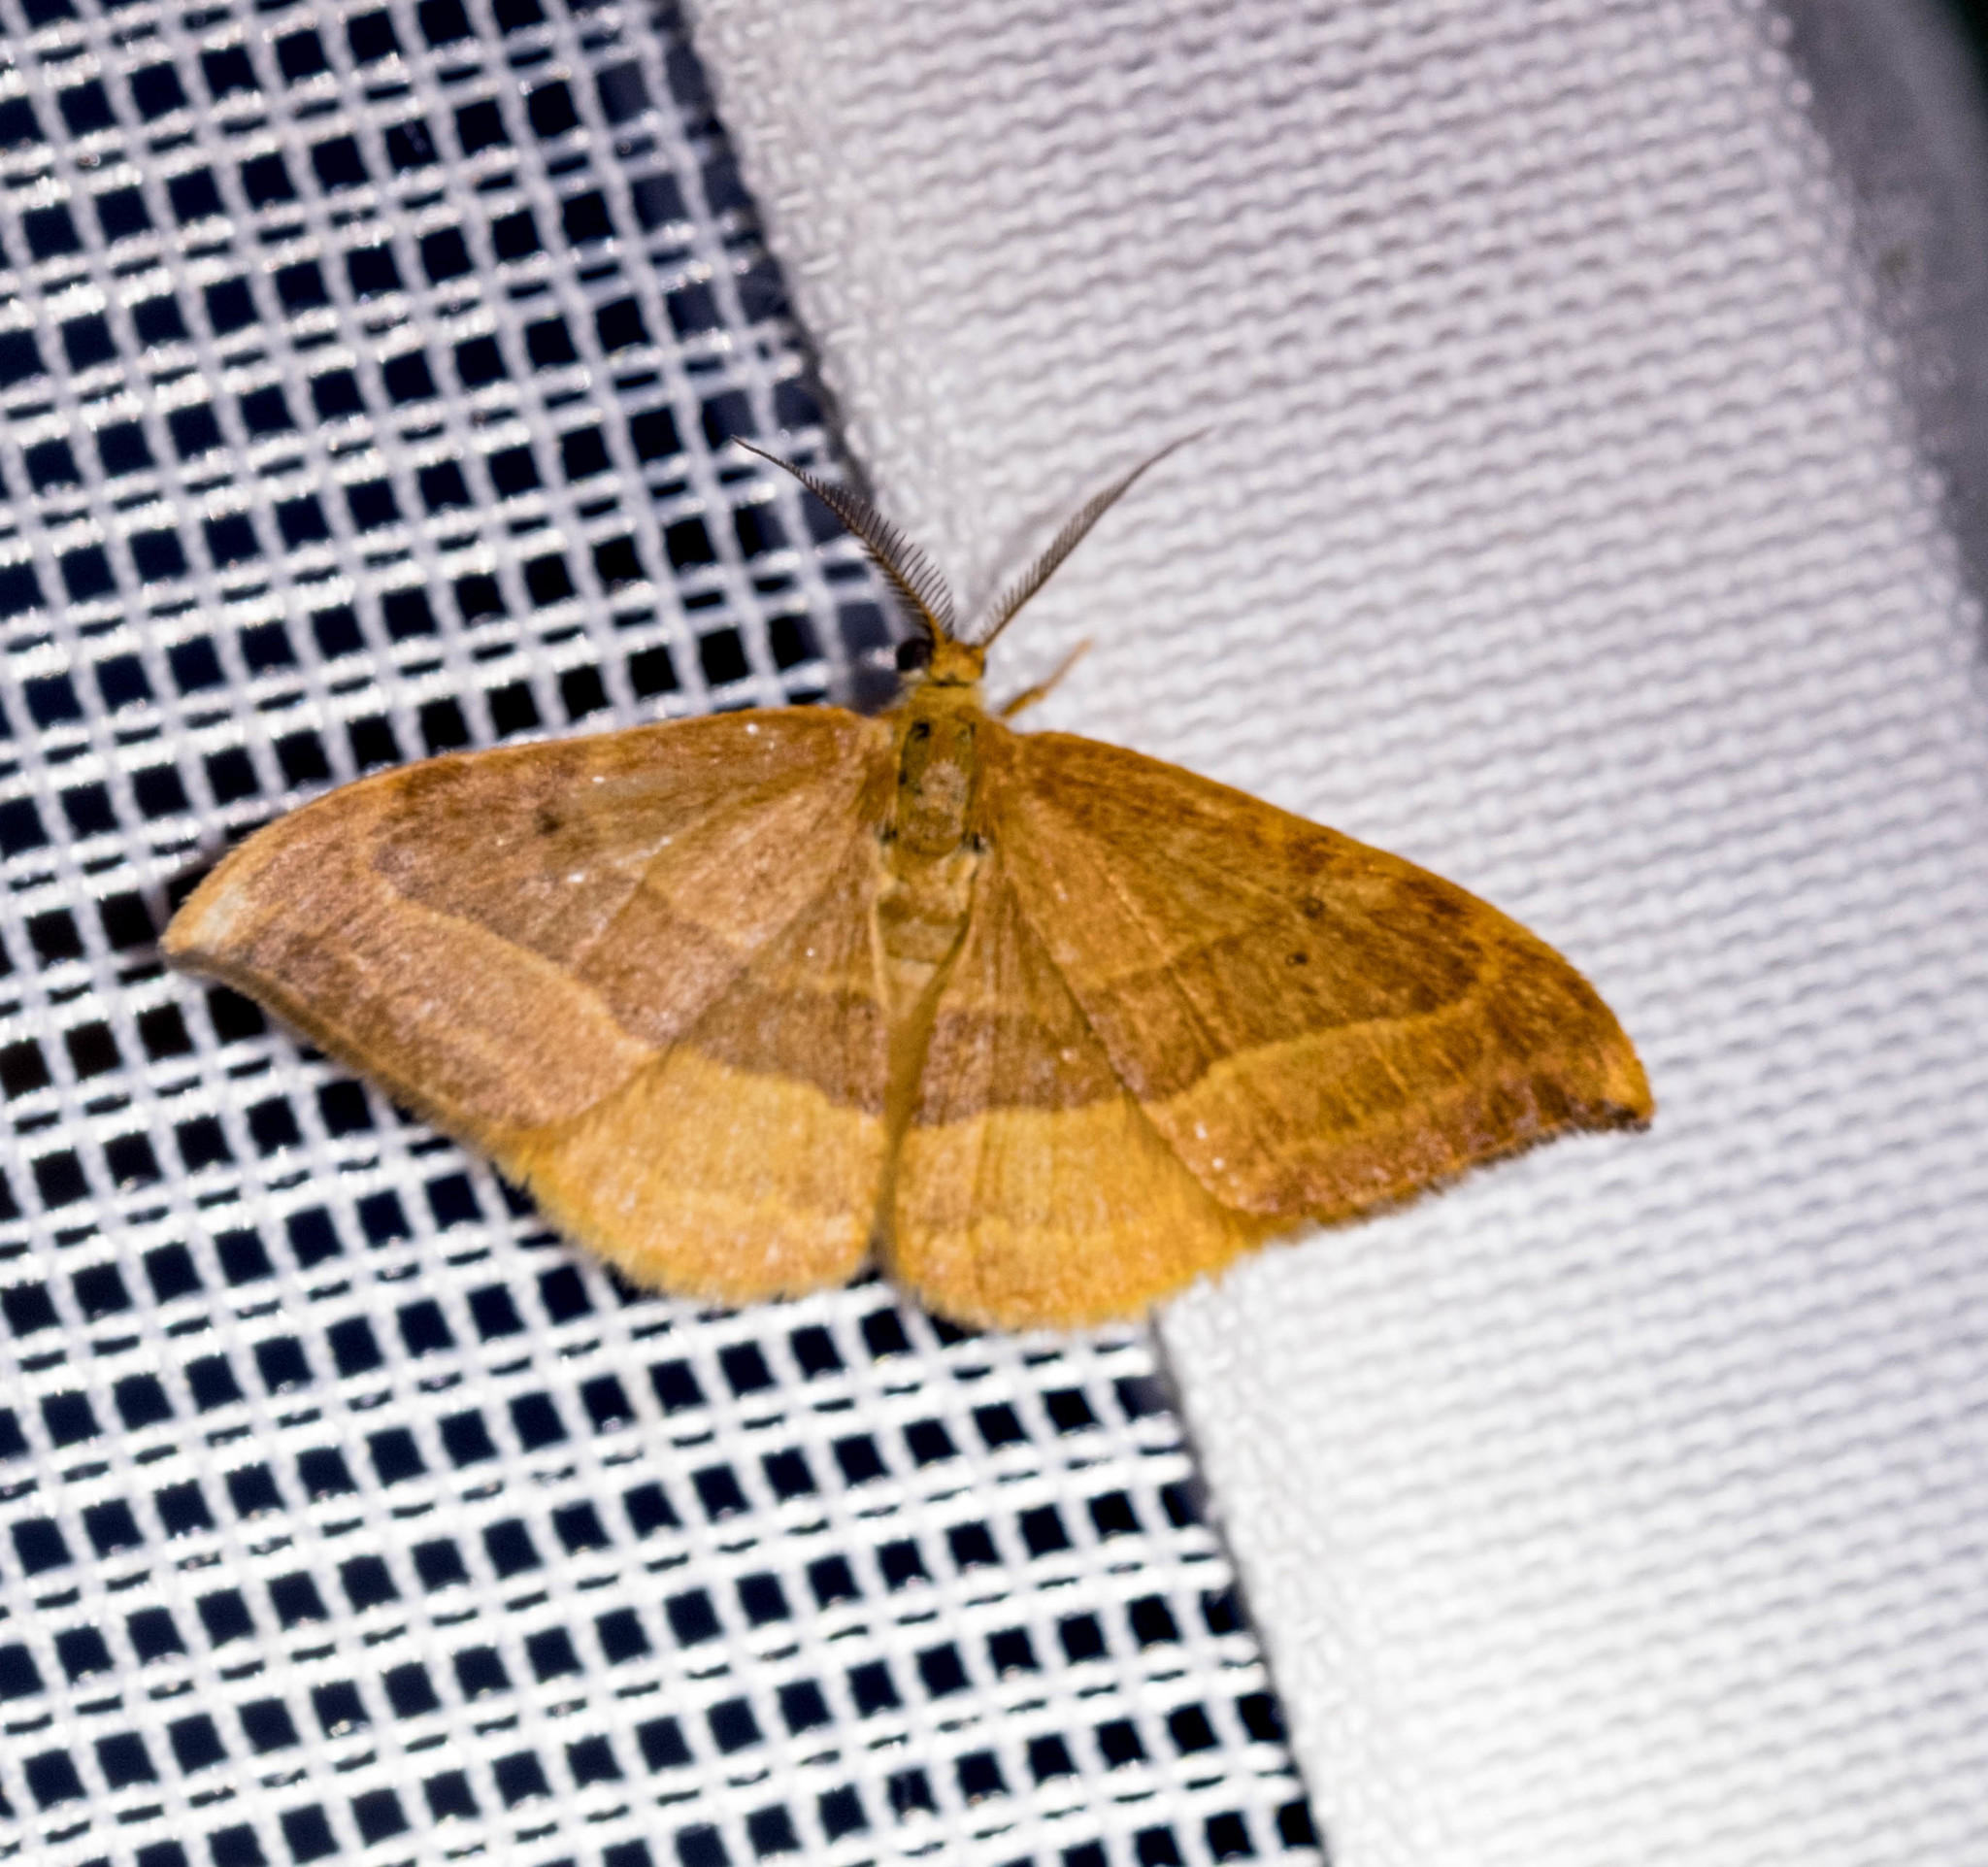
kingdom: Animalia
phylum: Arthropoda
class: Insecta
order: Lepidoptera
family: Drepanidae
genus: Watsonalla
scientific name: Watsonalla cultraria
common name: Barred hook-tip
